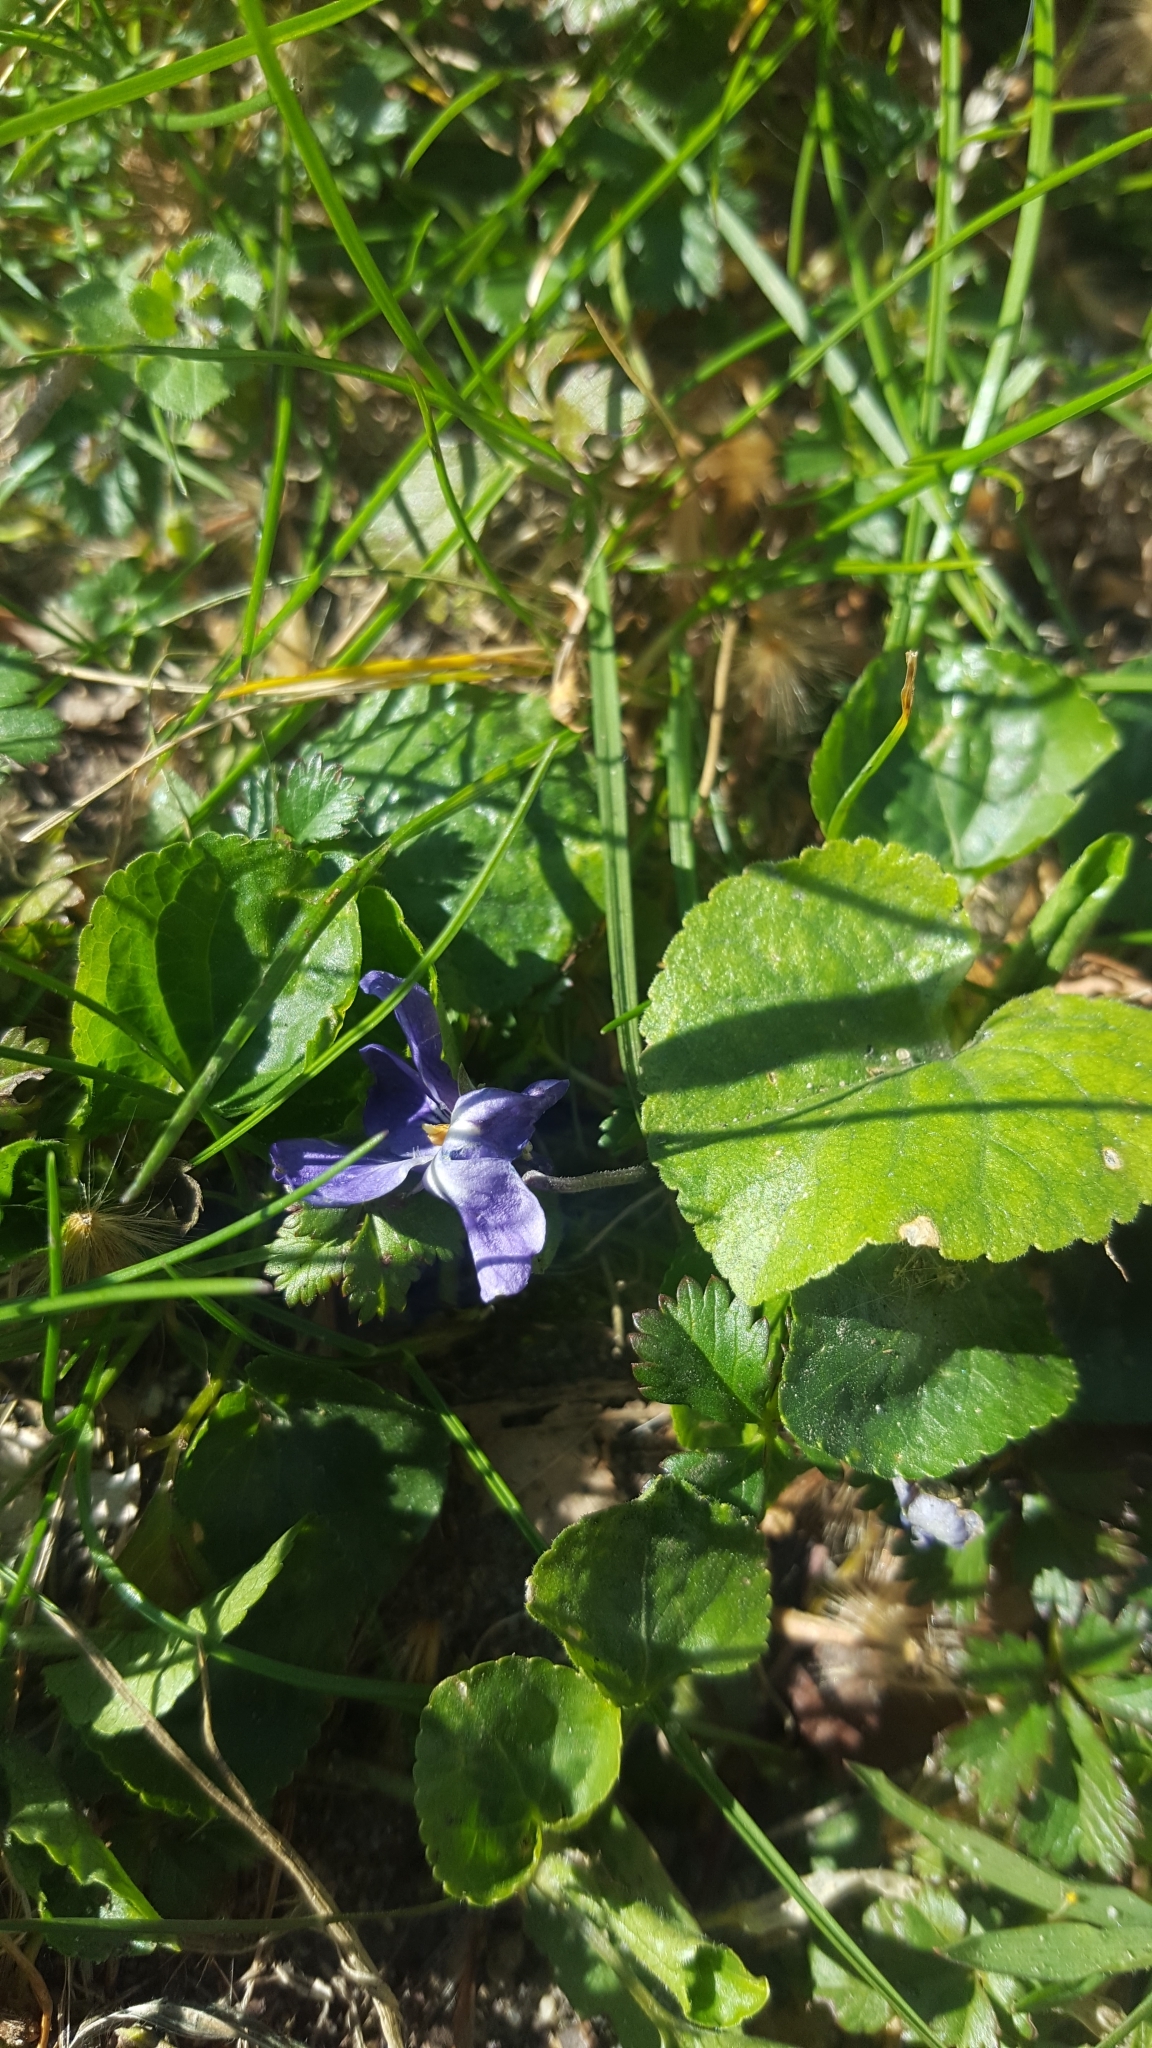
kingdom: Plantae
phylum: Tracheophyta
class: Magnoliopsida
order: Malpighiales
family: Violaceae
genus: Viola
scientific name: Viola odorata
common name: Sweet violet
